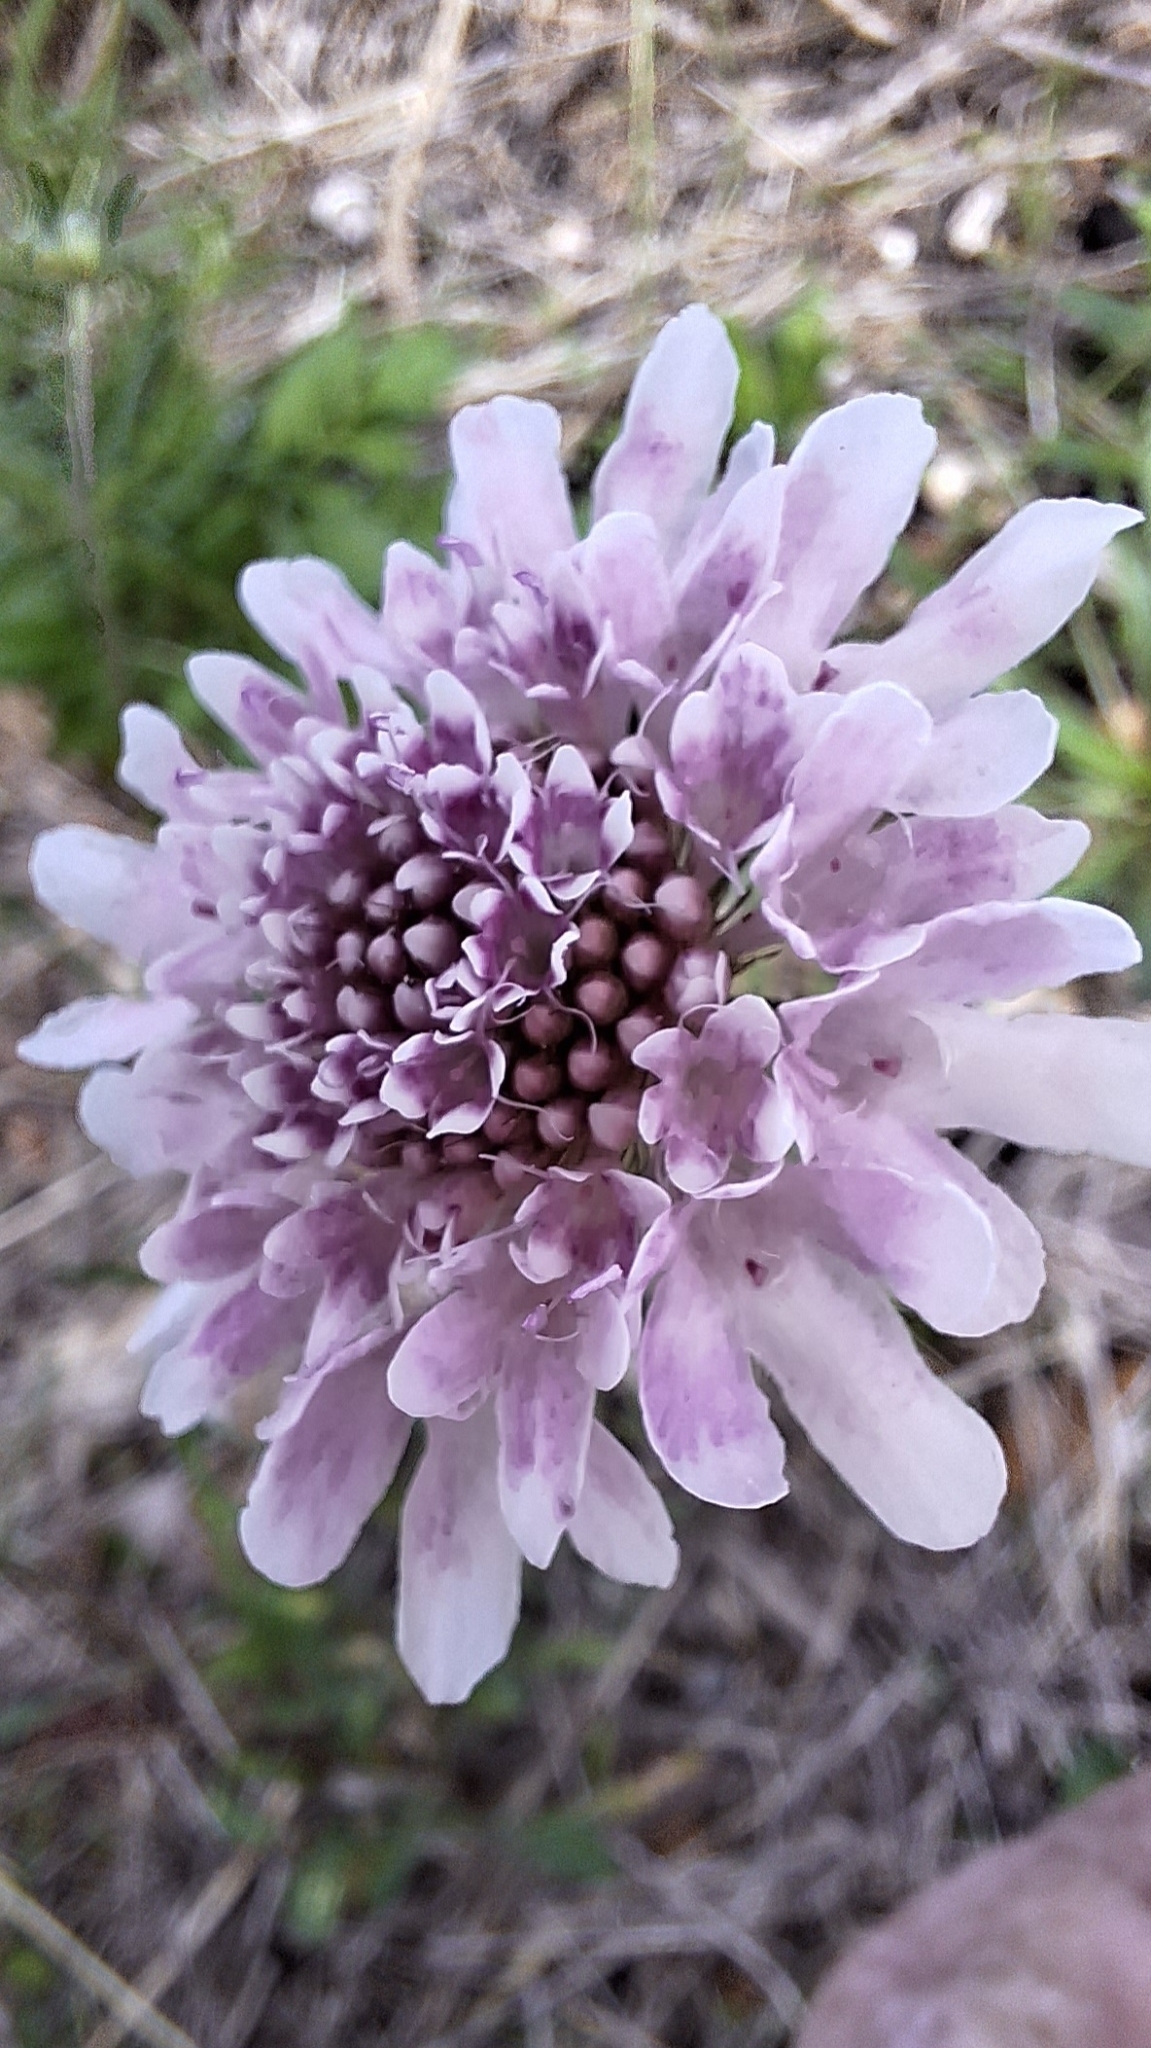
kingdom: Plantae
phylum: Tracheophyta
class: Magnoliopsida
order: Dipsacales
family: Caprifoliaceae
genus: Sixalix
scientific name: Sixalix atropurpurea
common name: Sweet scabious
